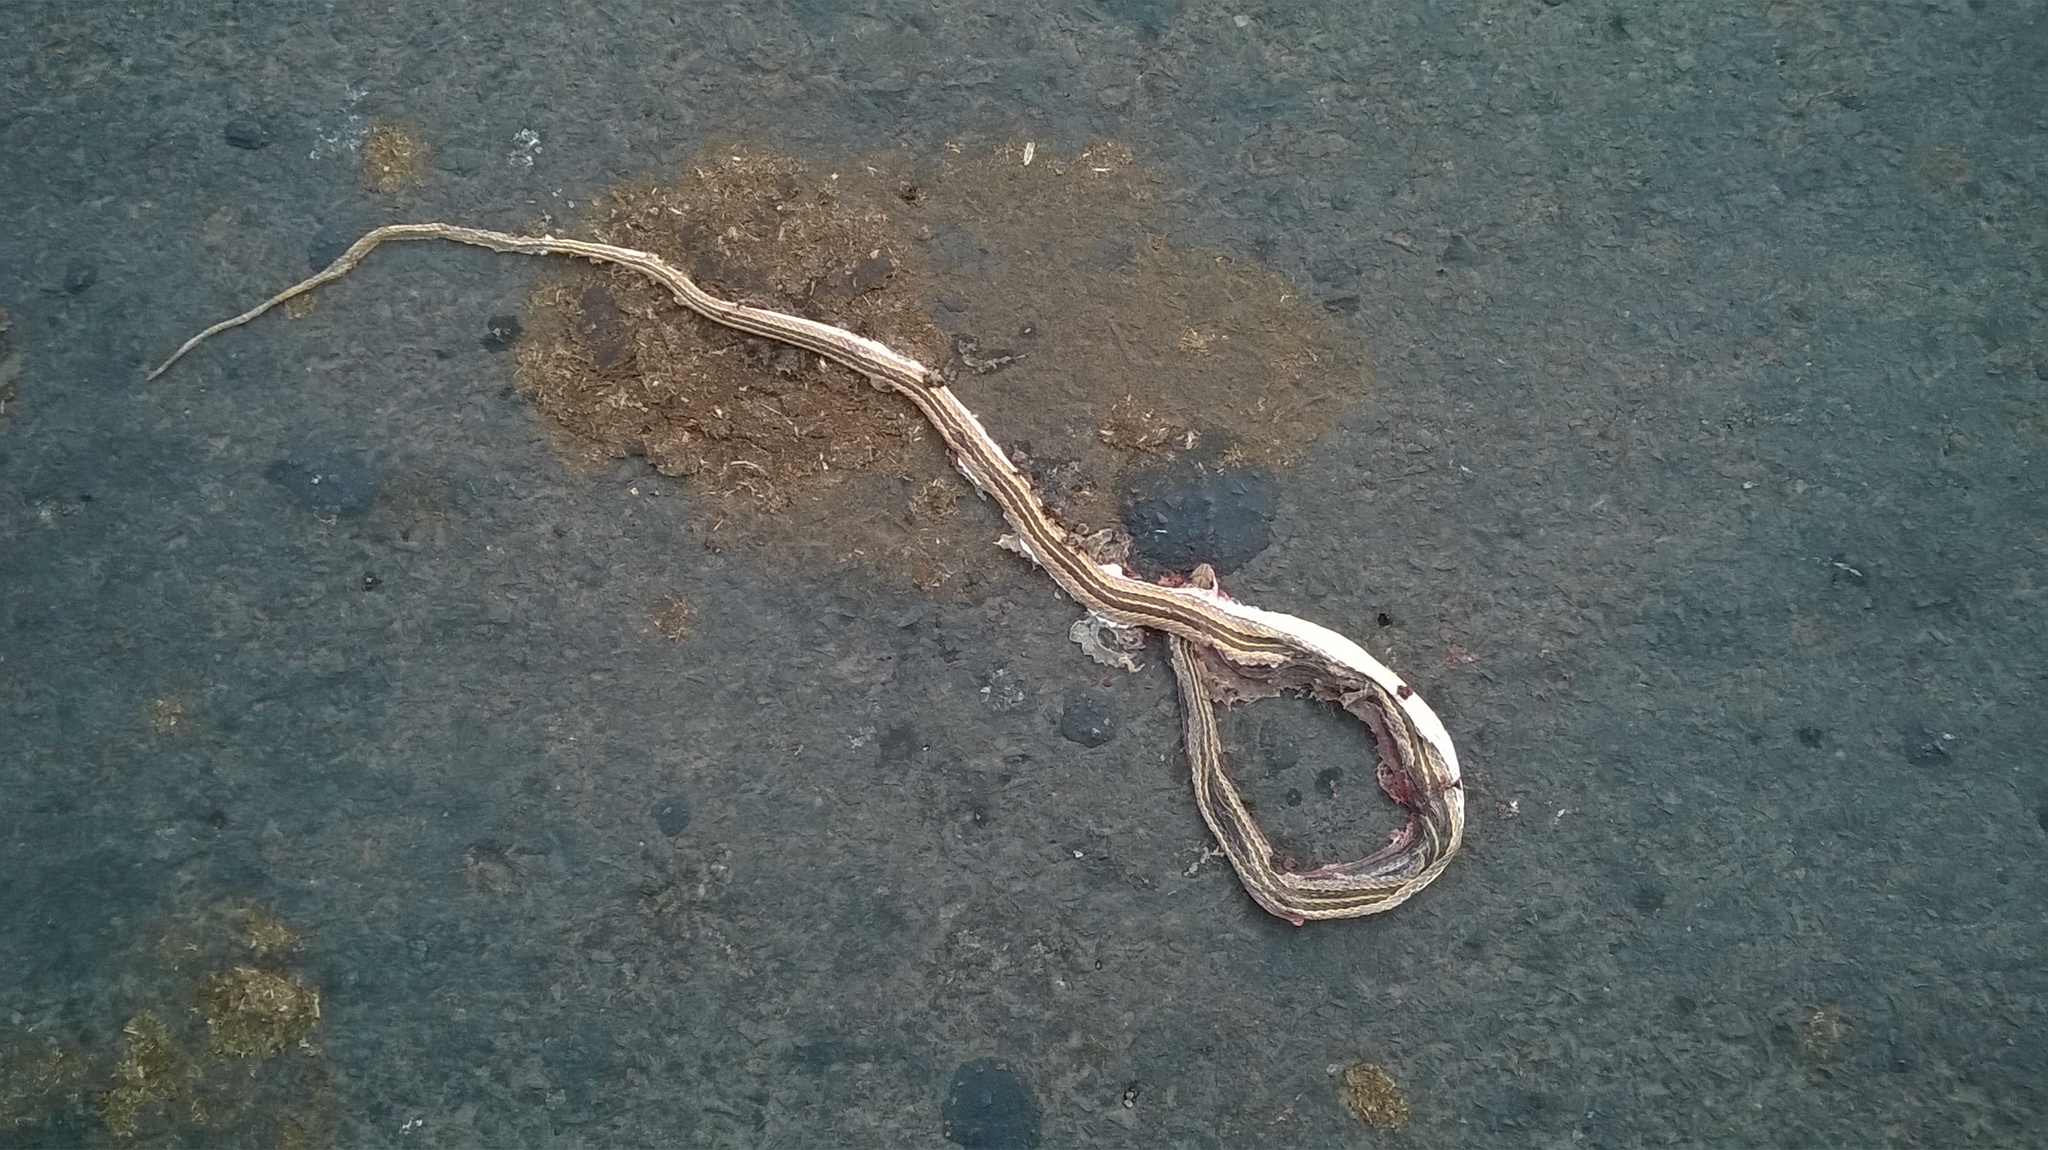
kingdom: Animalia
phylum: Chordata
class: Squamata
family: Psammophiidae
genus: Psammophis
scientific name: Psammophis leithii
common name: Leith's sand snake
